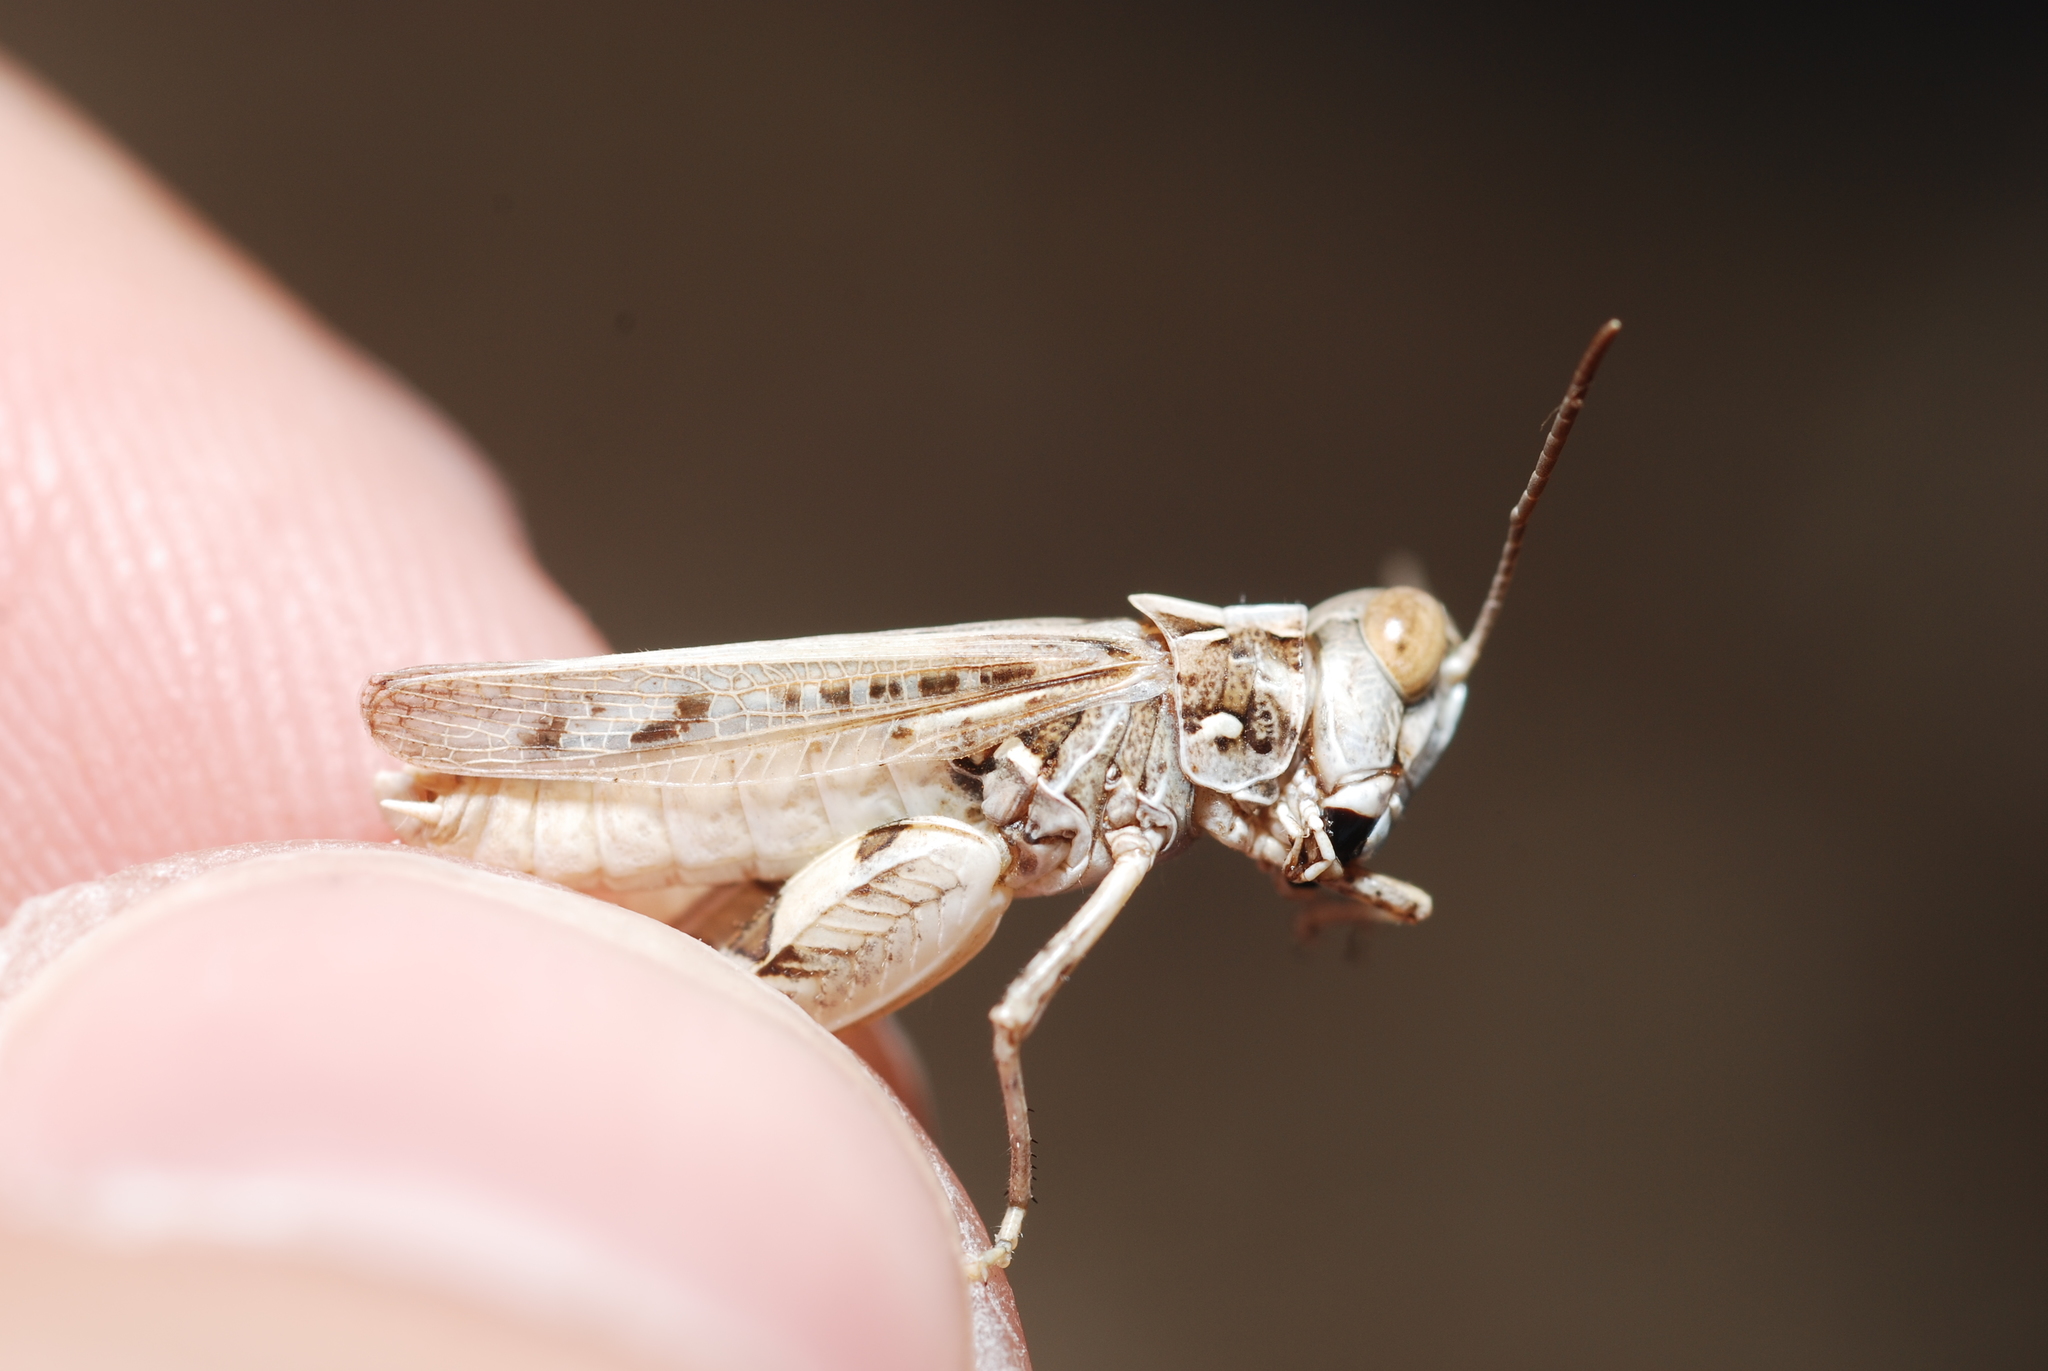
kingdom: Animalia
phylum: Arthropoda
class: Insecta
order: Orthoptera
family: Acrididae
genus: Dociostaurus
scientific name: Dociostaurus jagoi
